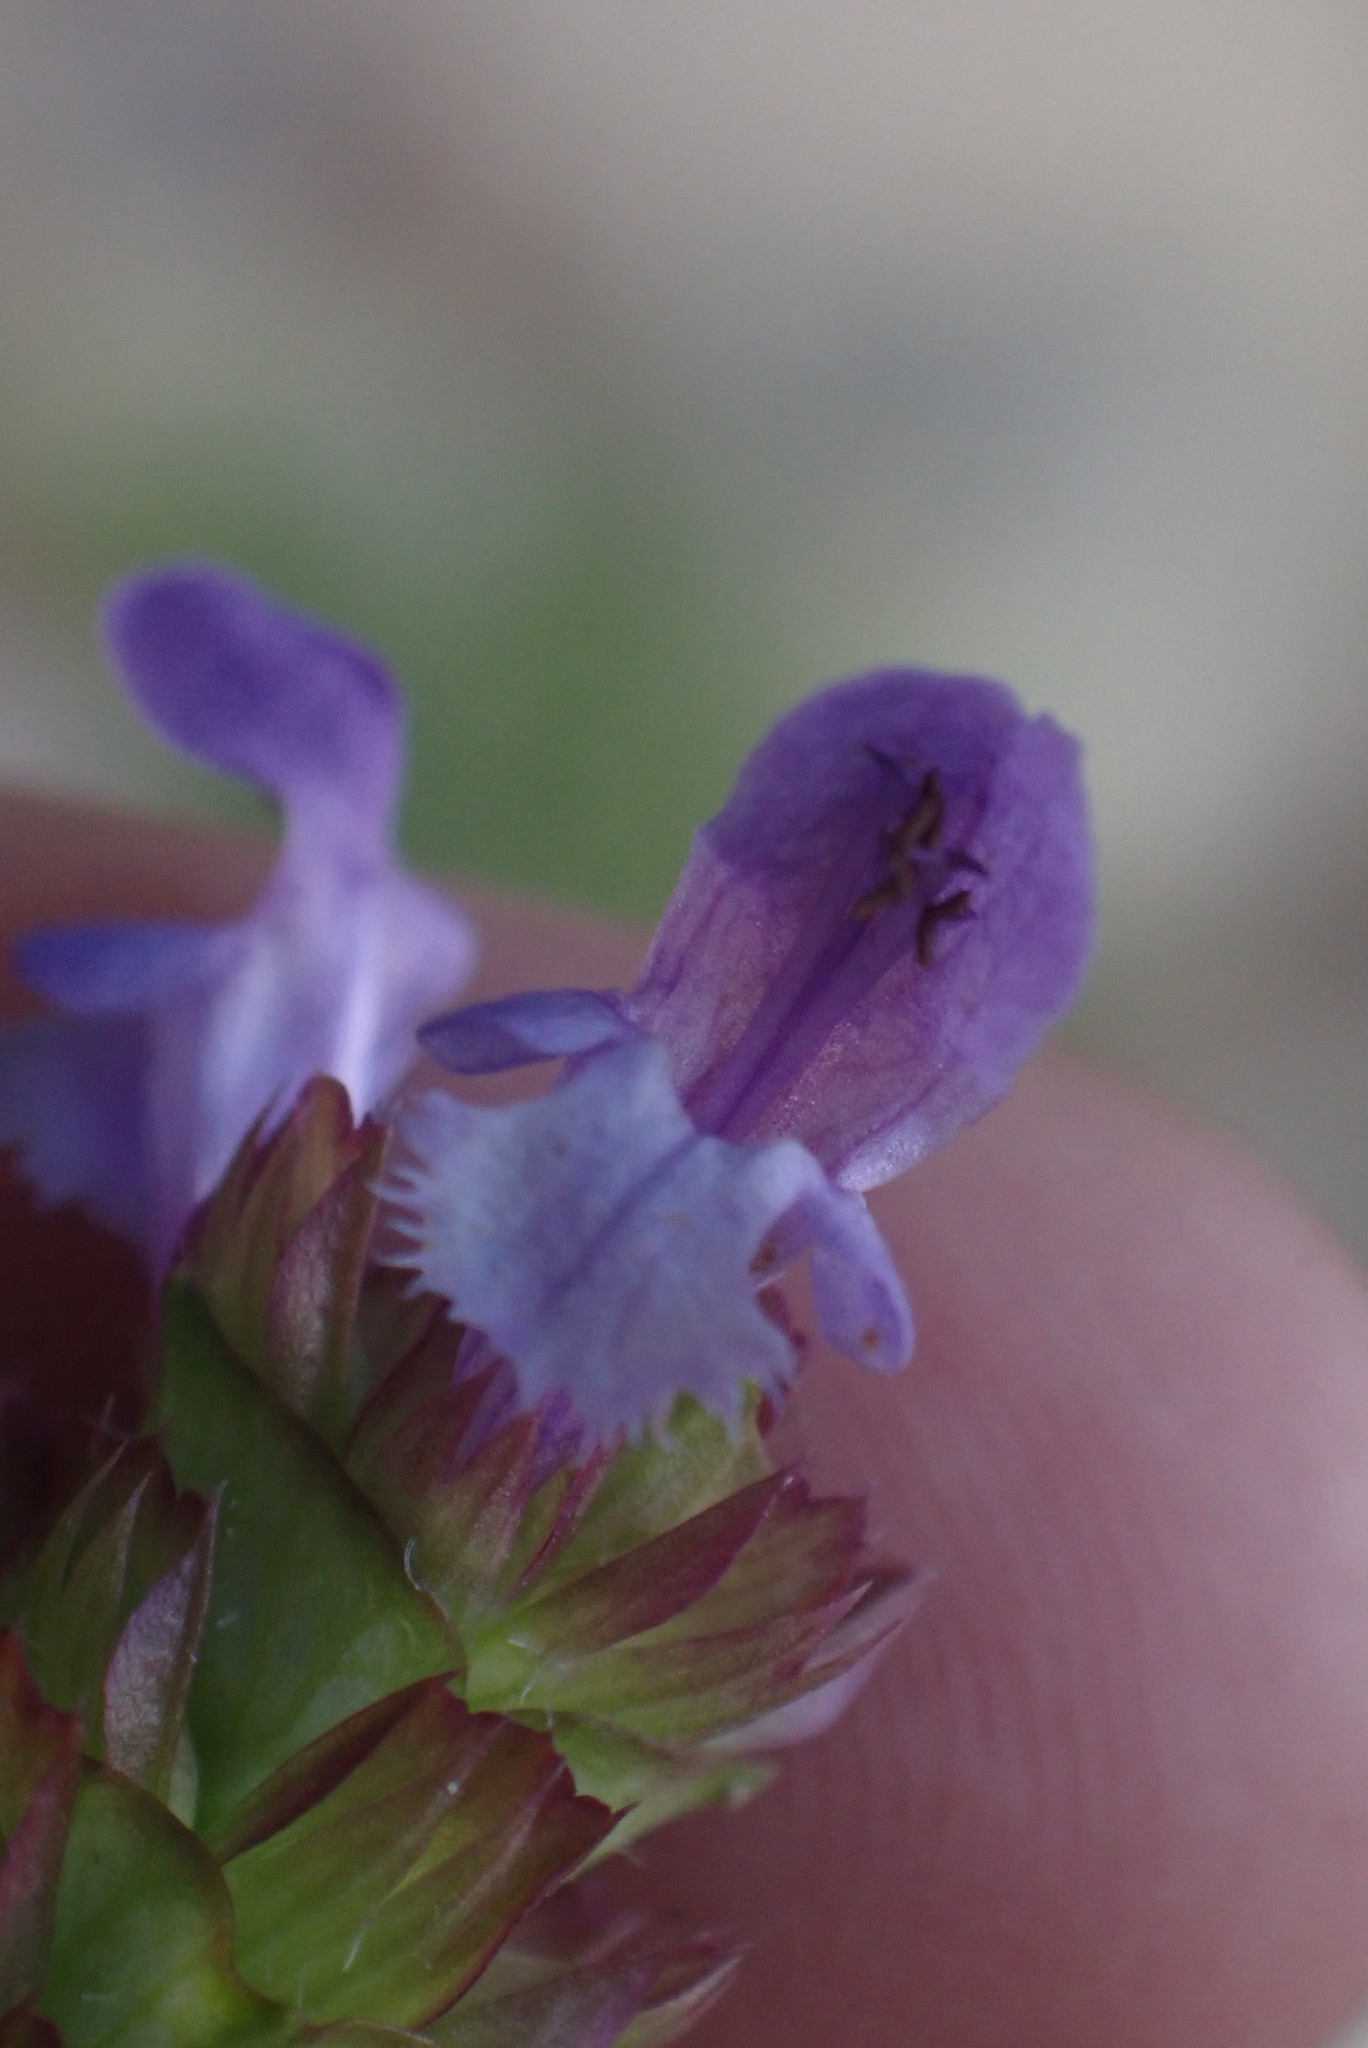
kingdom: Plantae
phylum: Tracheophyta
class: Magnoliopsida
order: Lamiales
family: Lamiaceae
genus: Prunella
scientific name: Prunella vulgaris
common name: Heal-all
